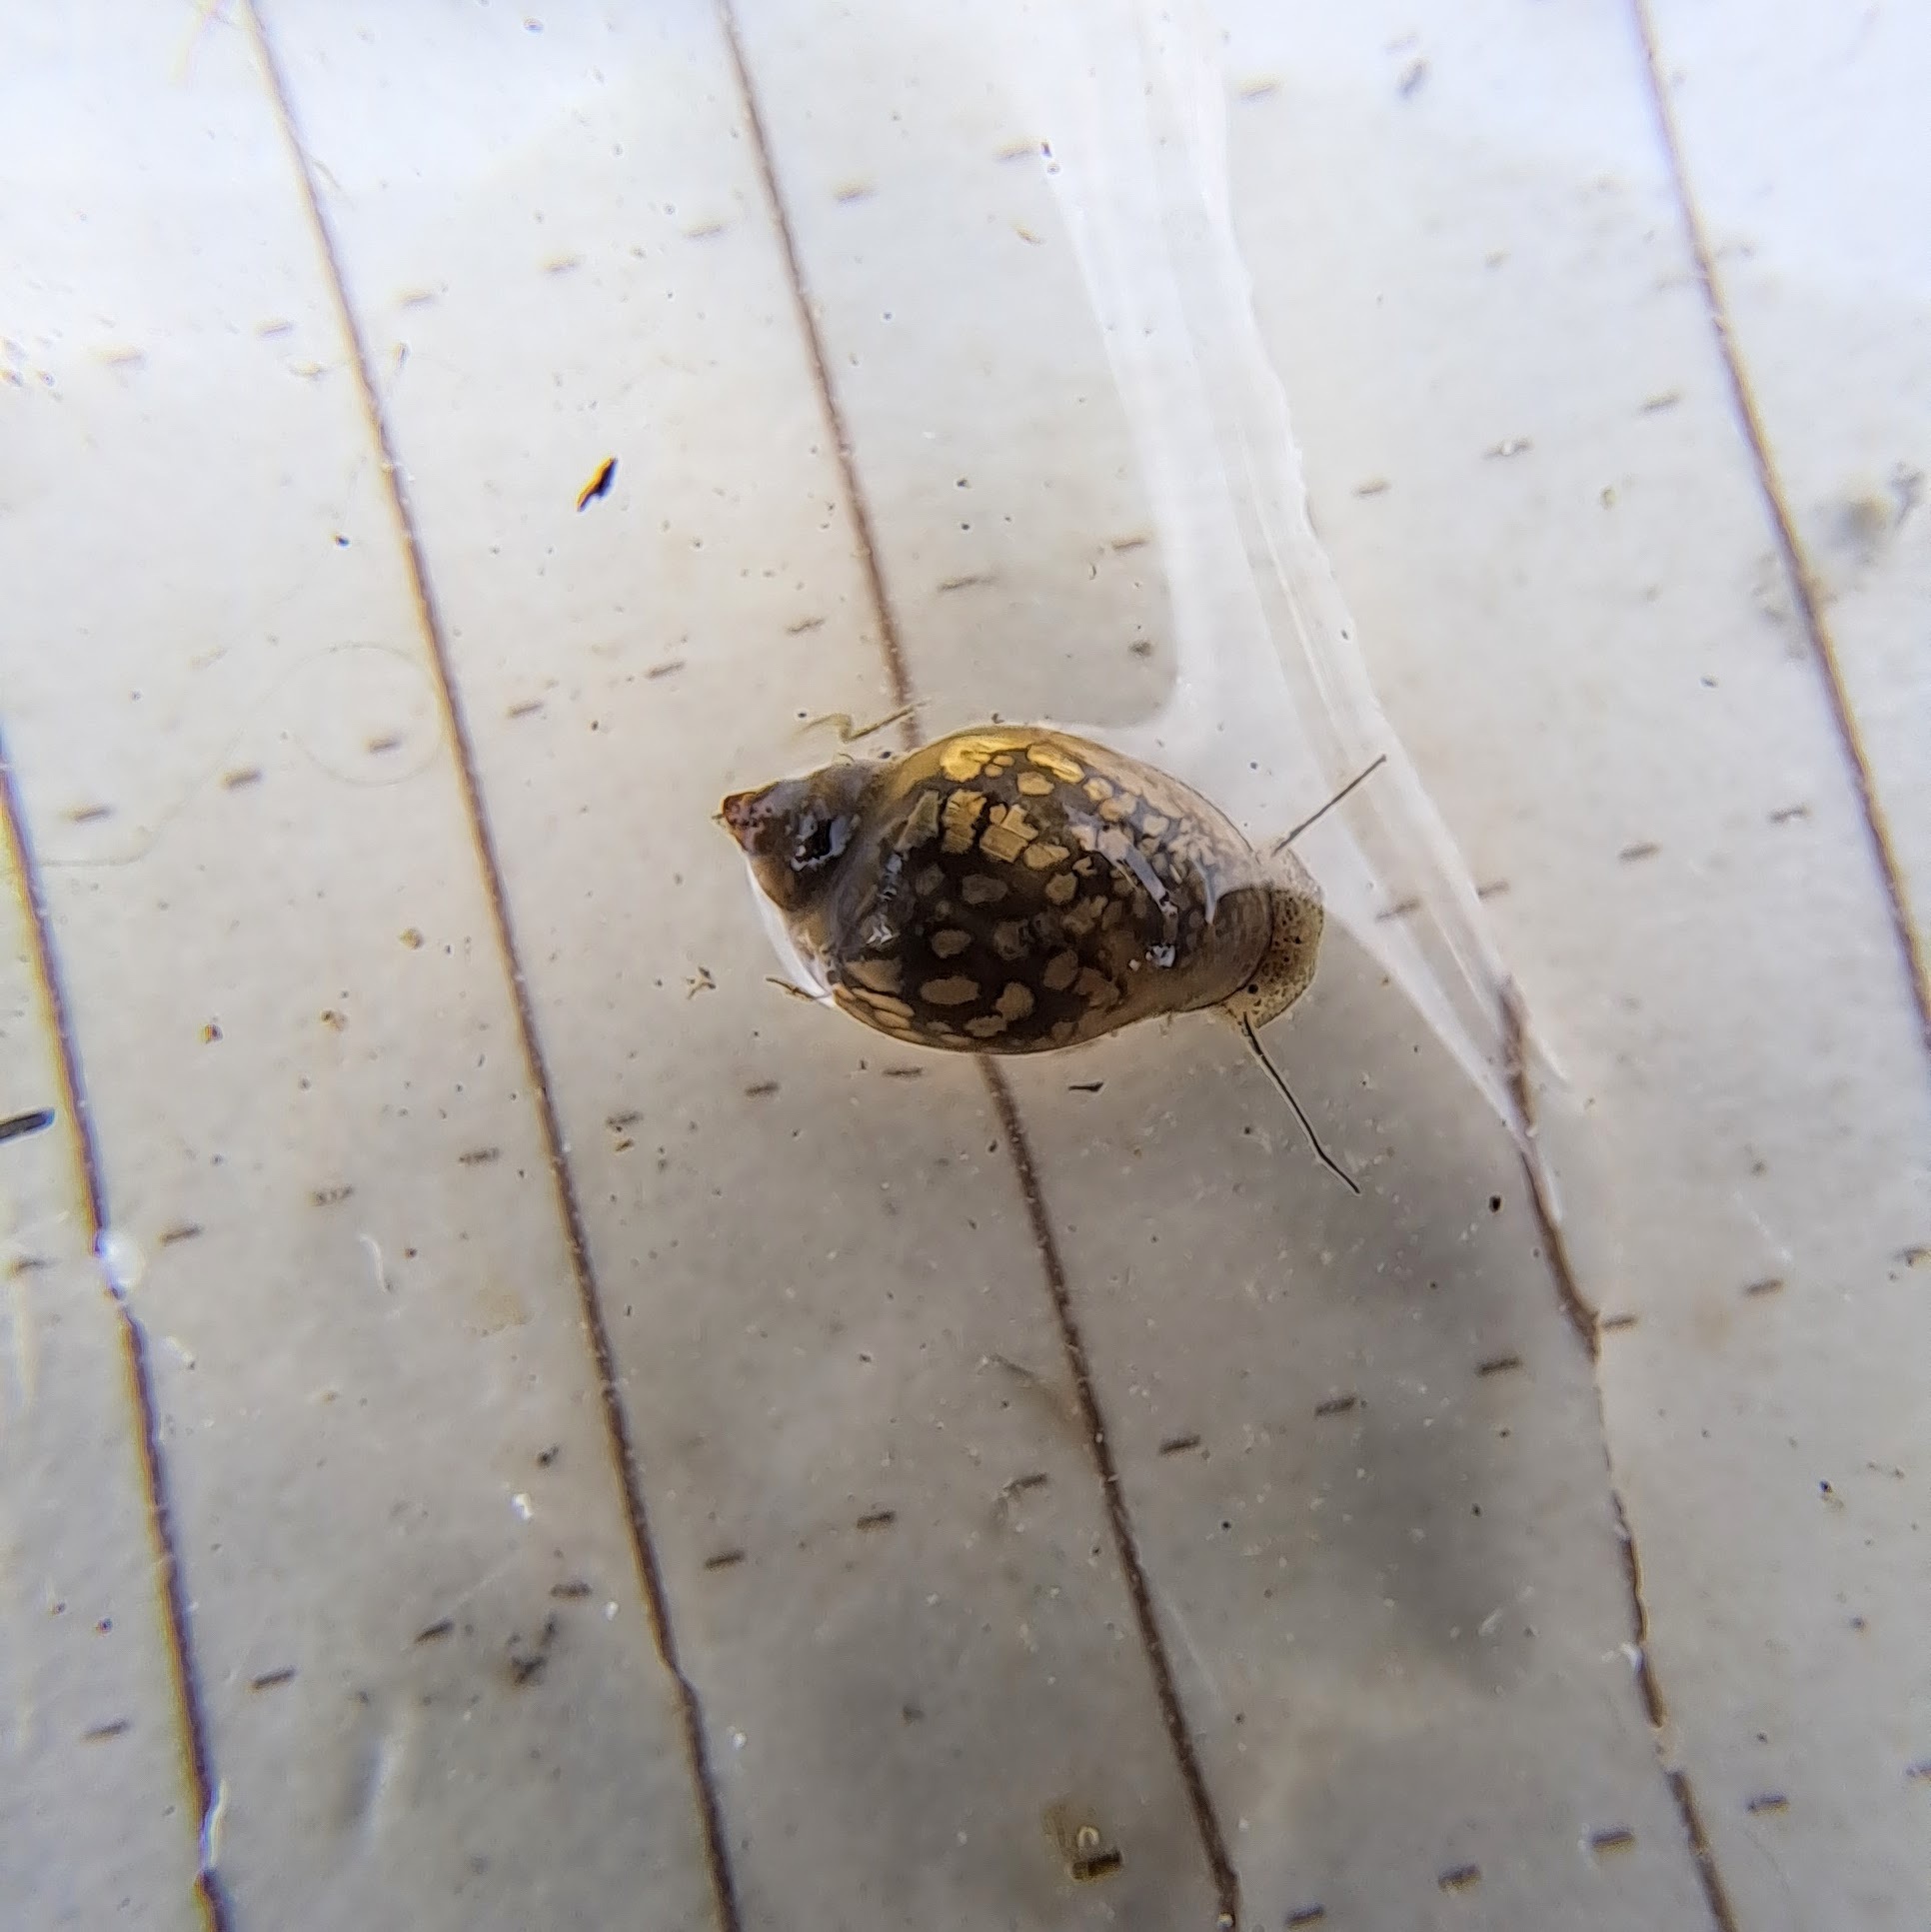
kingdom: Animalia
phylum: Mollusca
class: Gastropoda
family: Physidae
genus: Physella
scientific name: Physella
